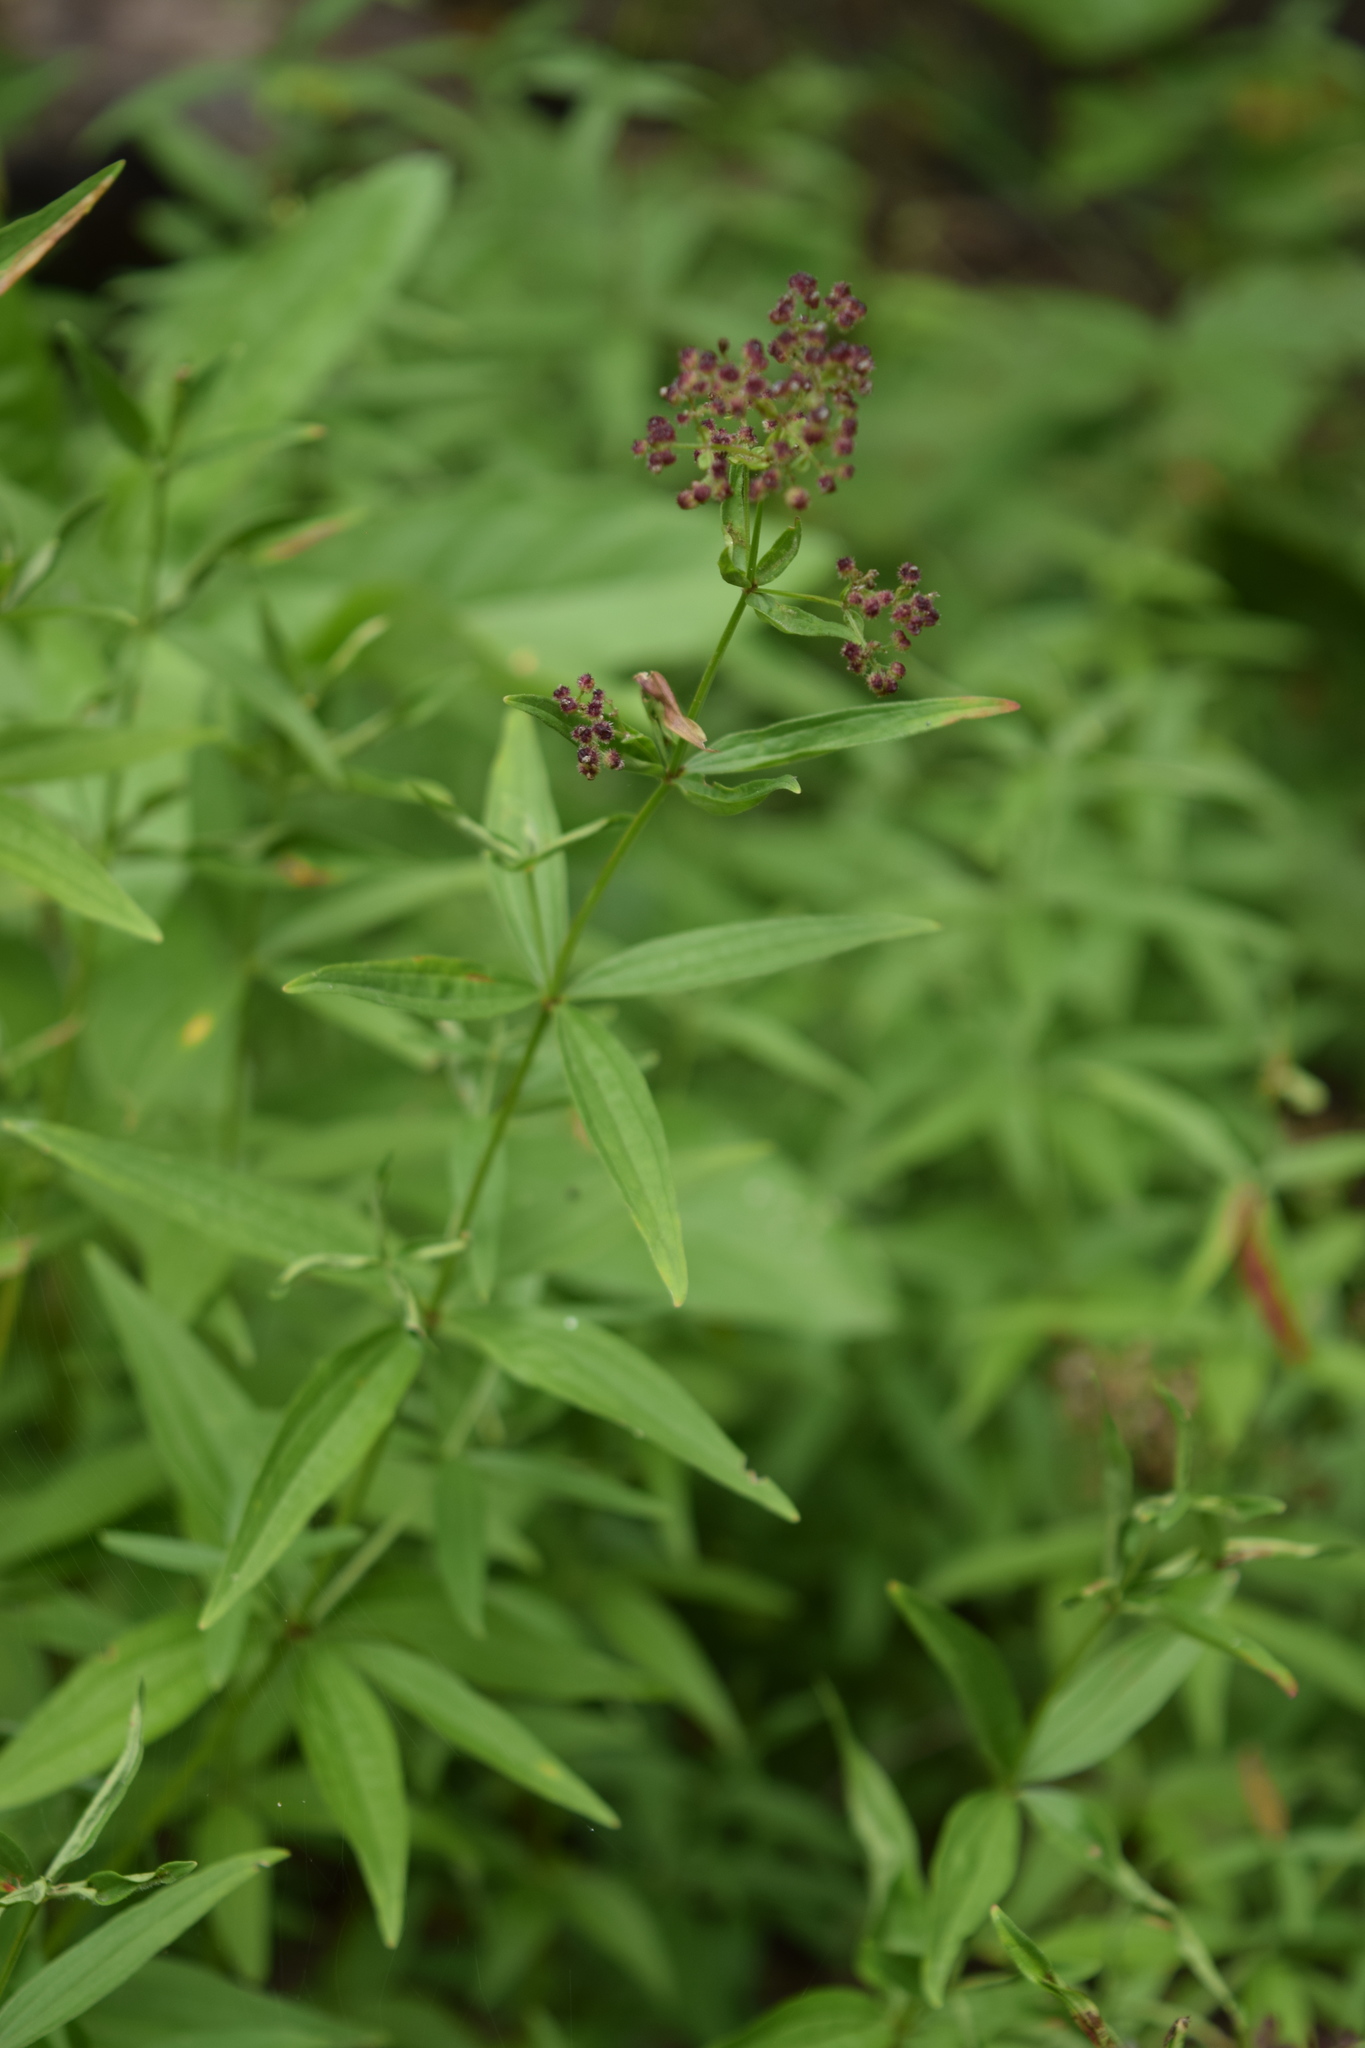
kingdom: Plantae
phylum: Tracheophyta
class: Magnoliopsida
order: Gentianales
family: Rubiaceae
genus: Galium
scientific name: Galium boreale
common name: Northern bedstraw
